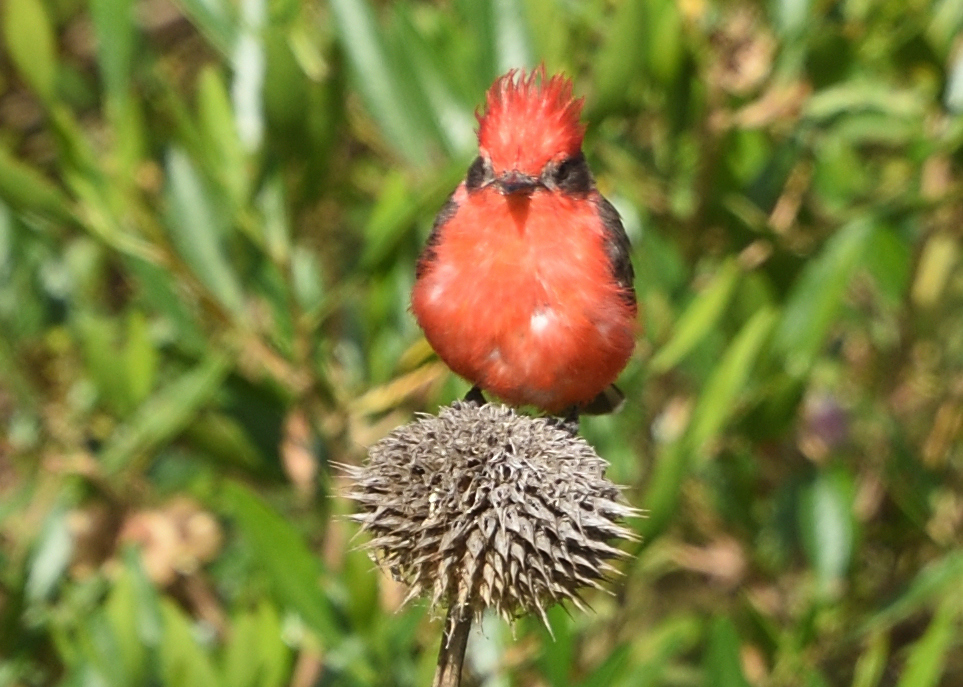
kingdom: Animalia
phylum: Chordata
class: Aves
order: Passeriformes
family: Tyrannidae
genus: Pyrocephalus
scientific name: Pyrocephalus rubinus
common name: Vermilion flycatcher
